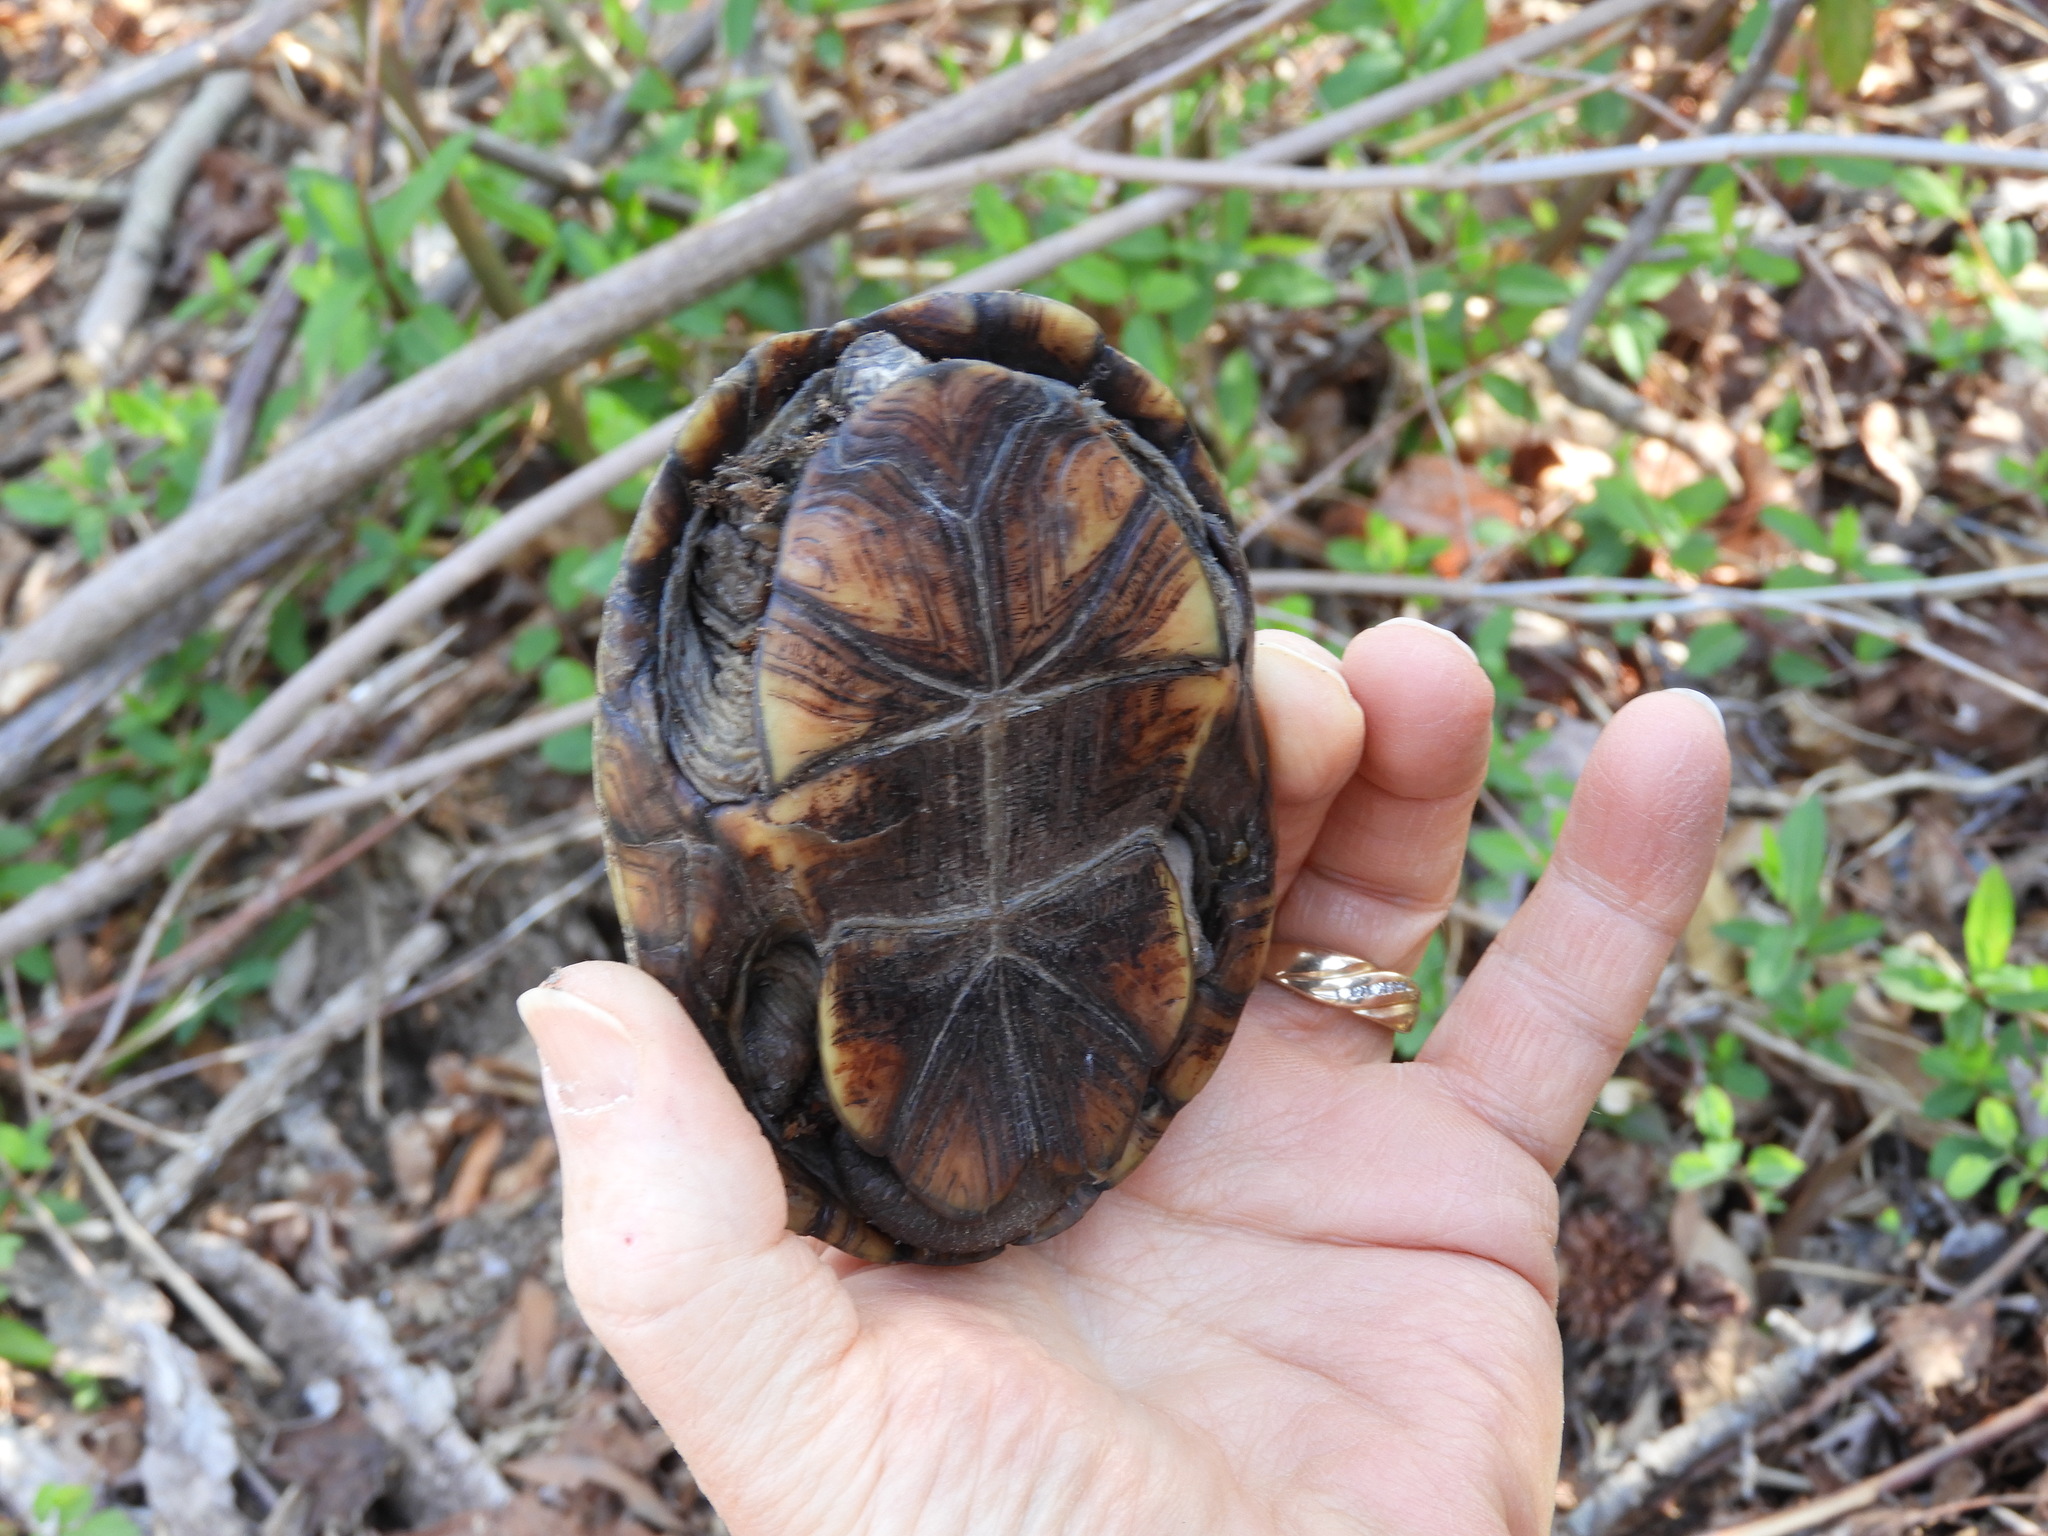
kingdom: Animalia
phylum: Chordata
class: Testudines
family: Kinosternidae
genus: Kinosternon
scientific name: Kinosternon subrubrum
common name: Eastern mud turtle
